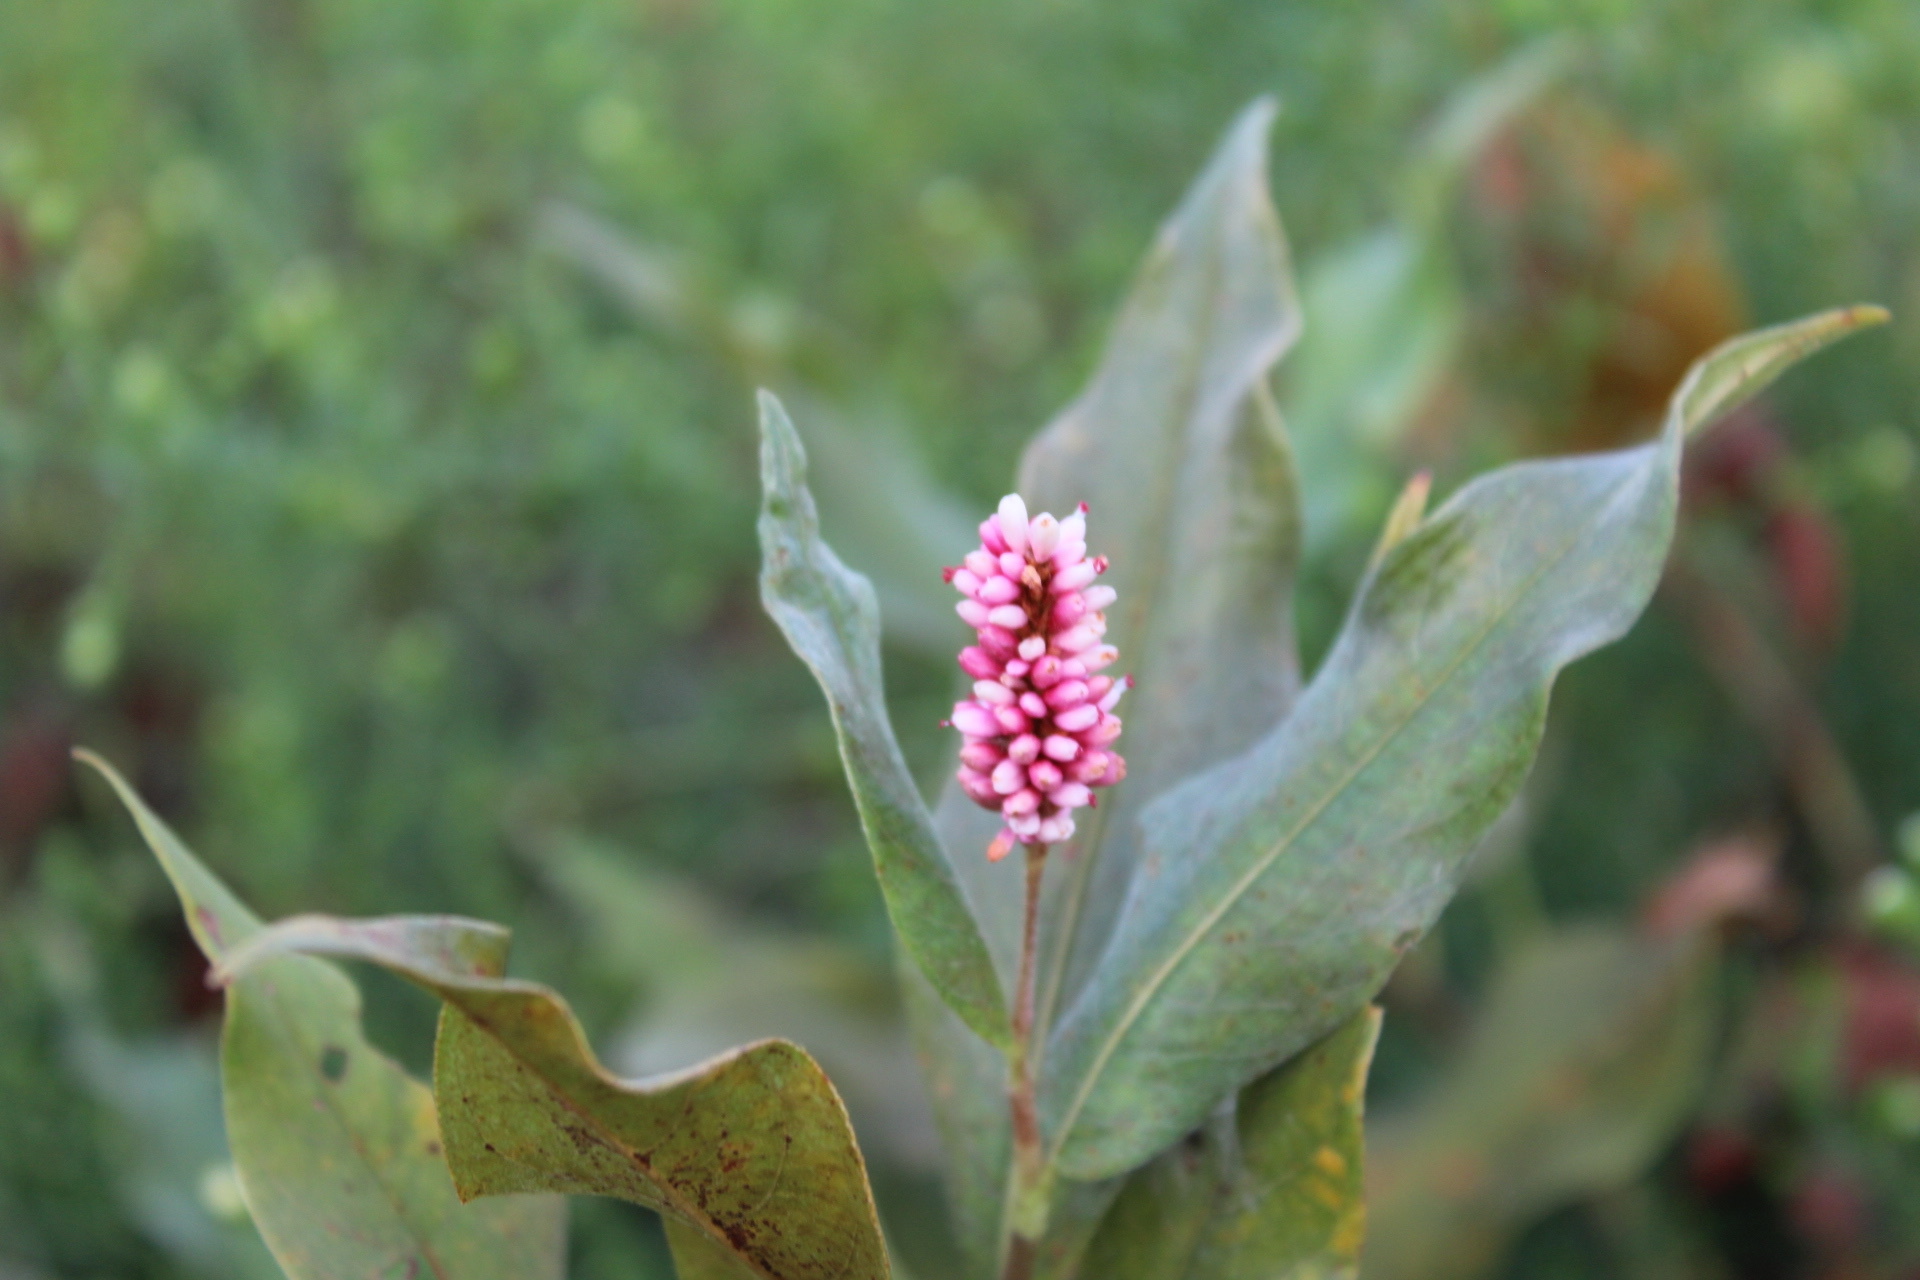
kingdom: Plantae
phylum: Tracheophyta
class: Magnoliopsida
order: Caryophyllales
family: Polygonaceae
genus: Persicaria
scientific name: Persicaria amphibia
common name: Amphibious bistort
